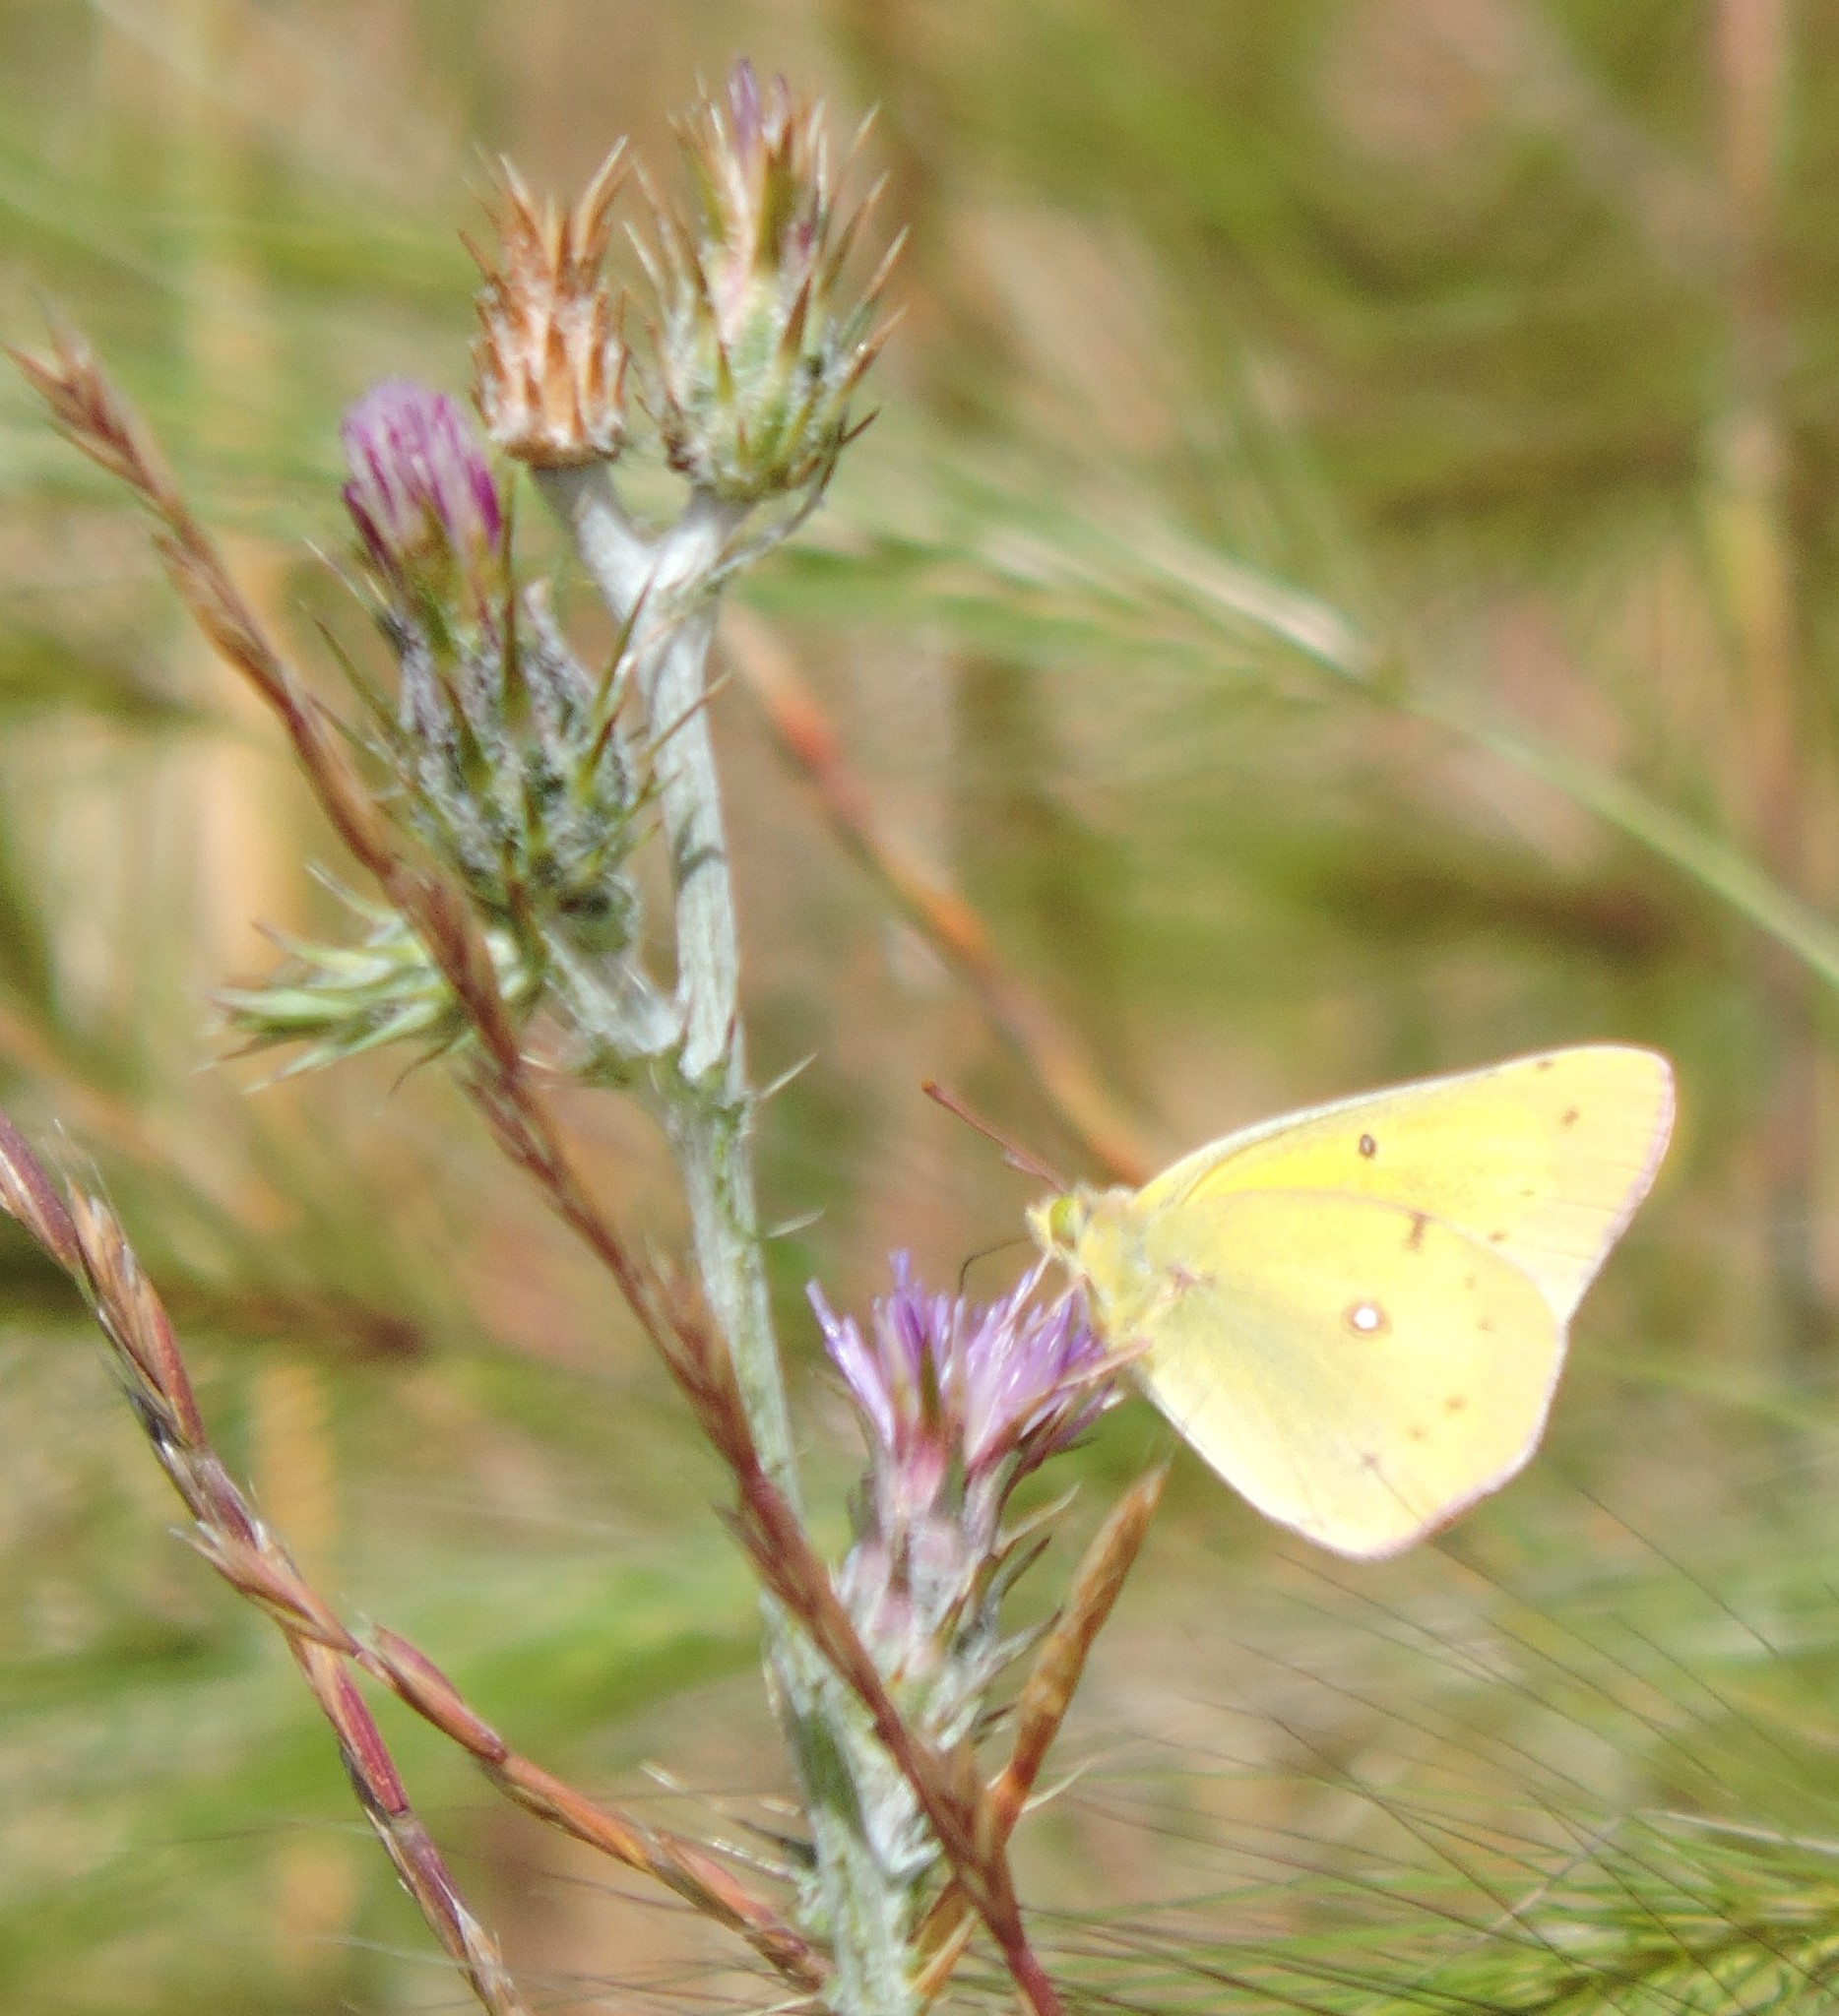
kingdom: Animalia
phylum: Arthropoda
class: Insecta
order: Lepidoptera
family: Pieridae
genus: Colias
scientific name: Colias eurytheme
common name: Alfalfa butterfly
